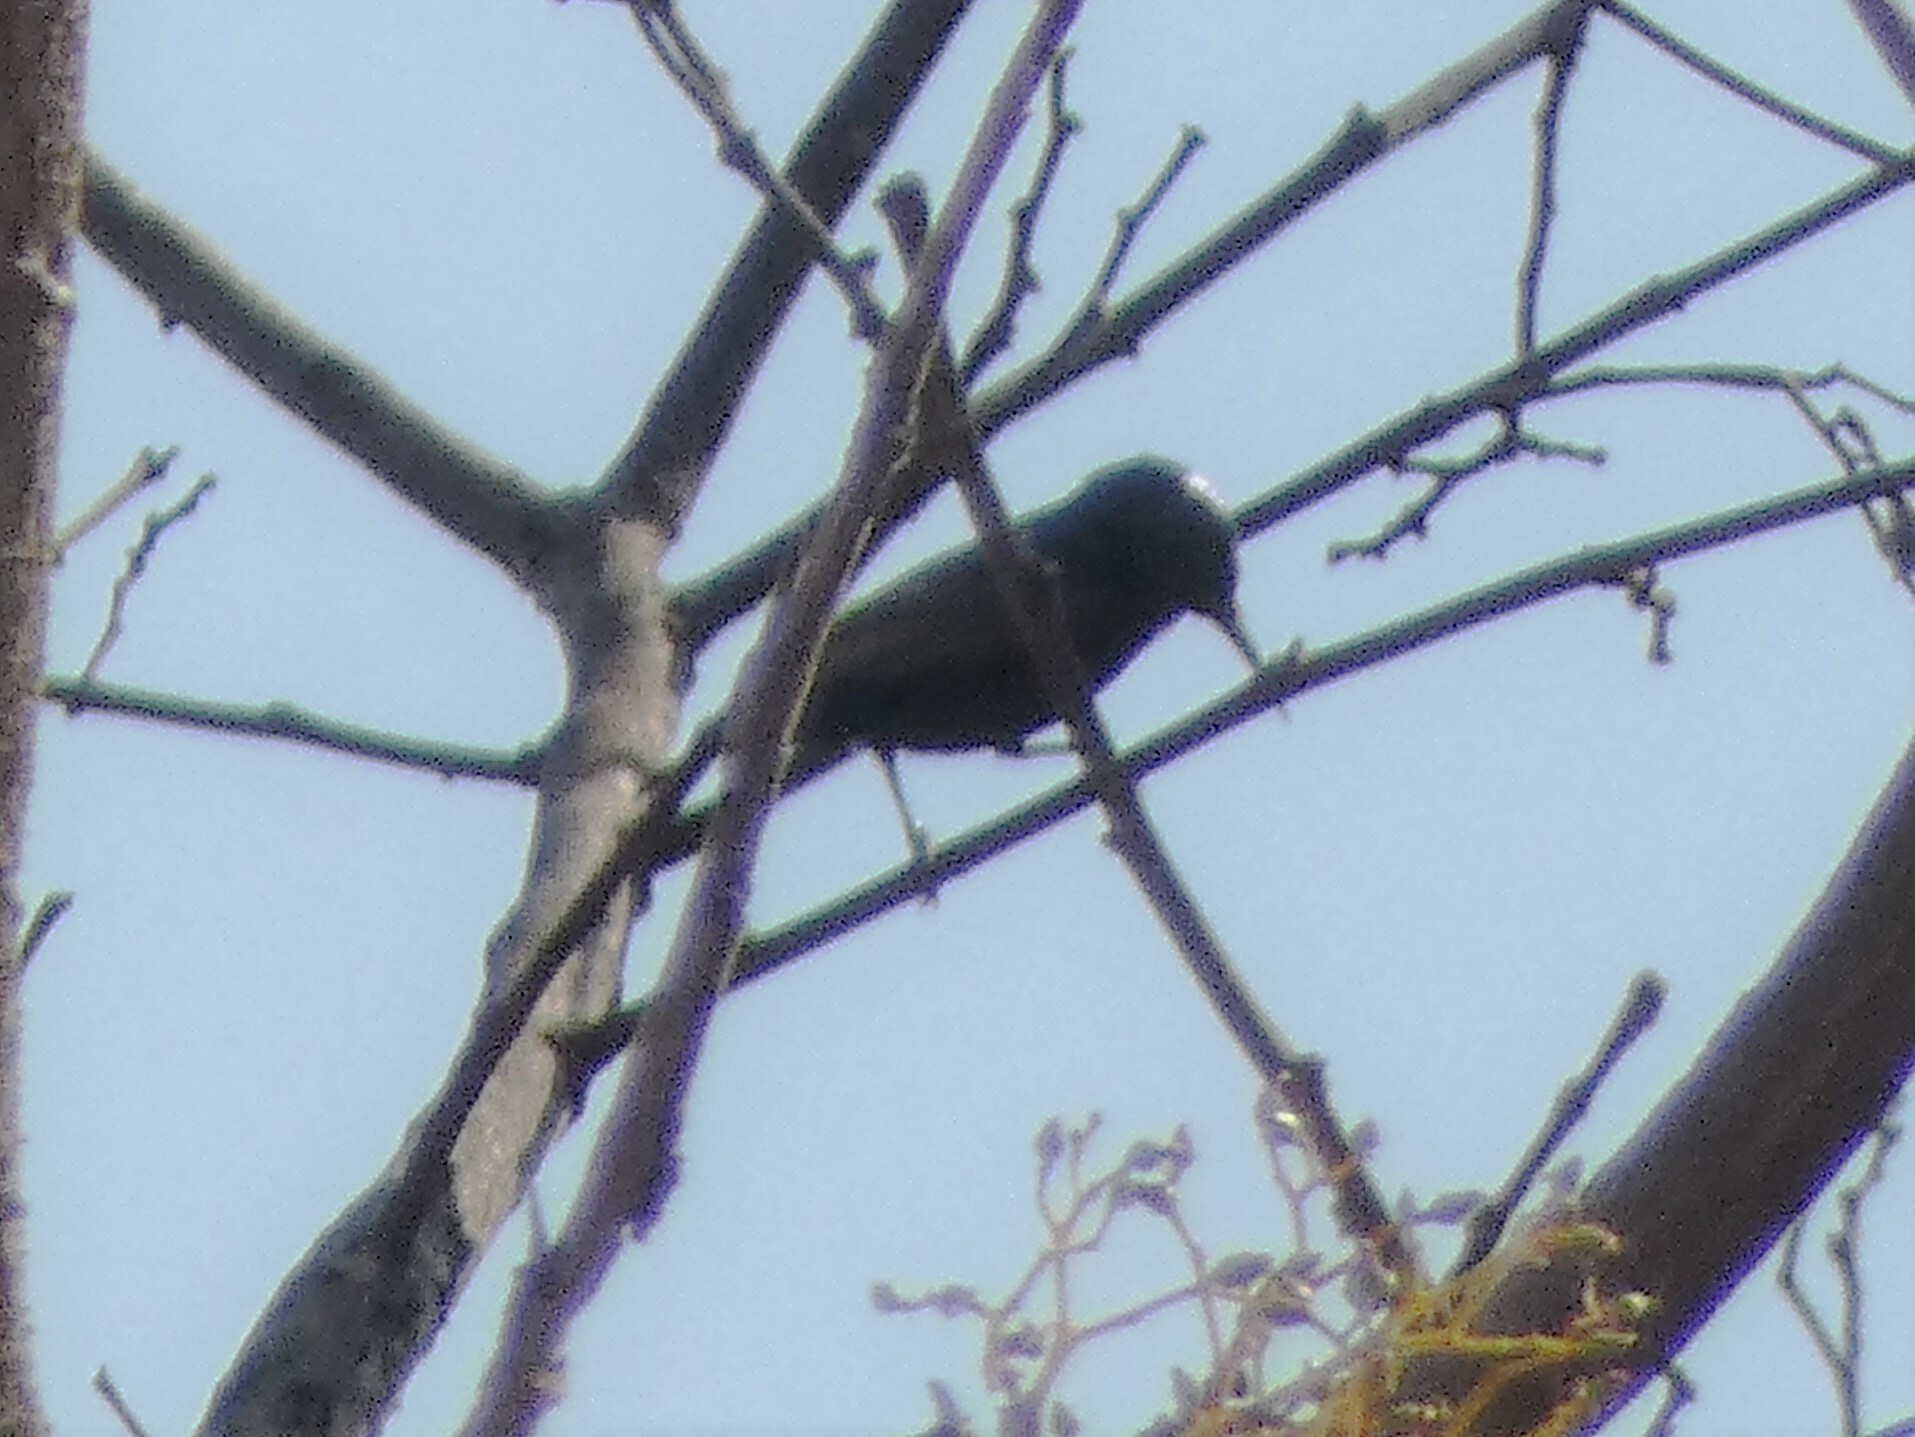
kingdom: Animalia
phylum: Chordata
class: Aves
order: Passeriformes
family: Nectariniidae
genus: Cinnyris
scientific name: Cinnyris asiaticus
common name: Purple sunbird
